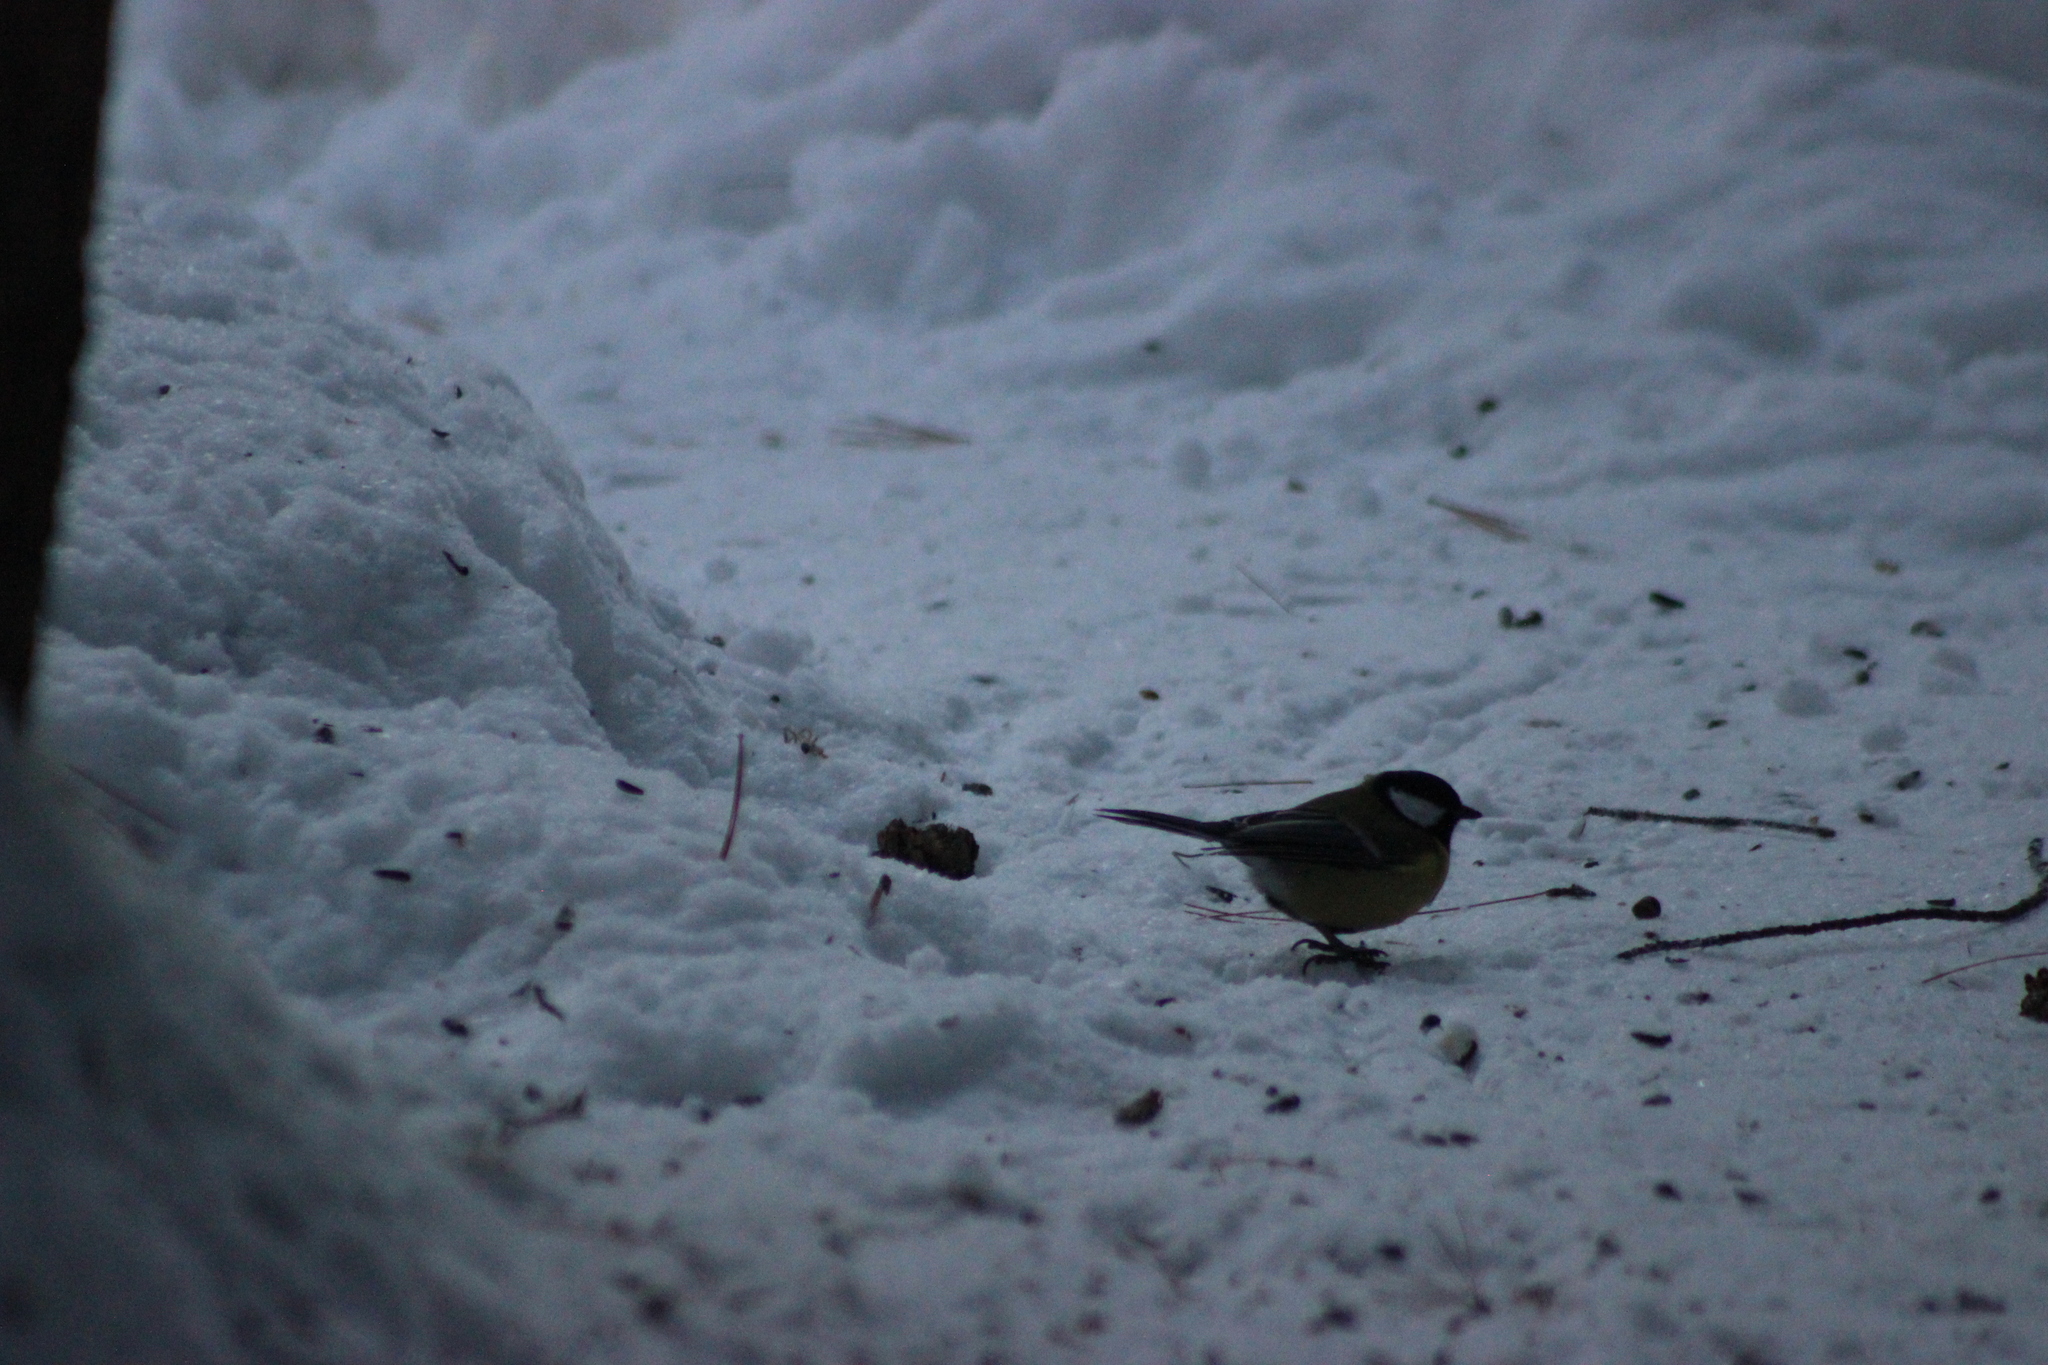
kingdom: Animalia
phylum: Chordata
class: Aves
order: Passeriformes
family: Paridae
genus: Parus
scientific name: Parus major
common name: Great tit
